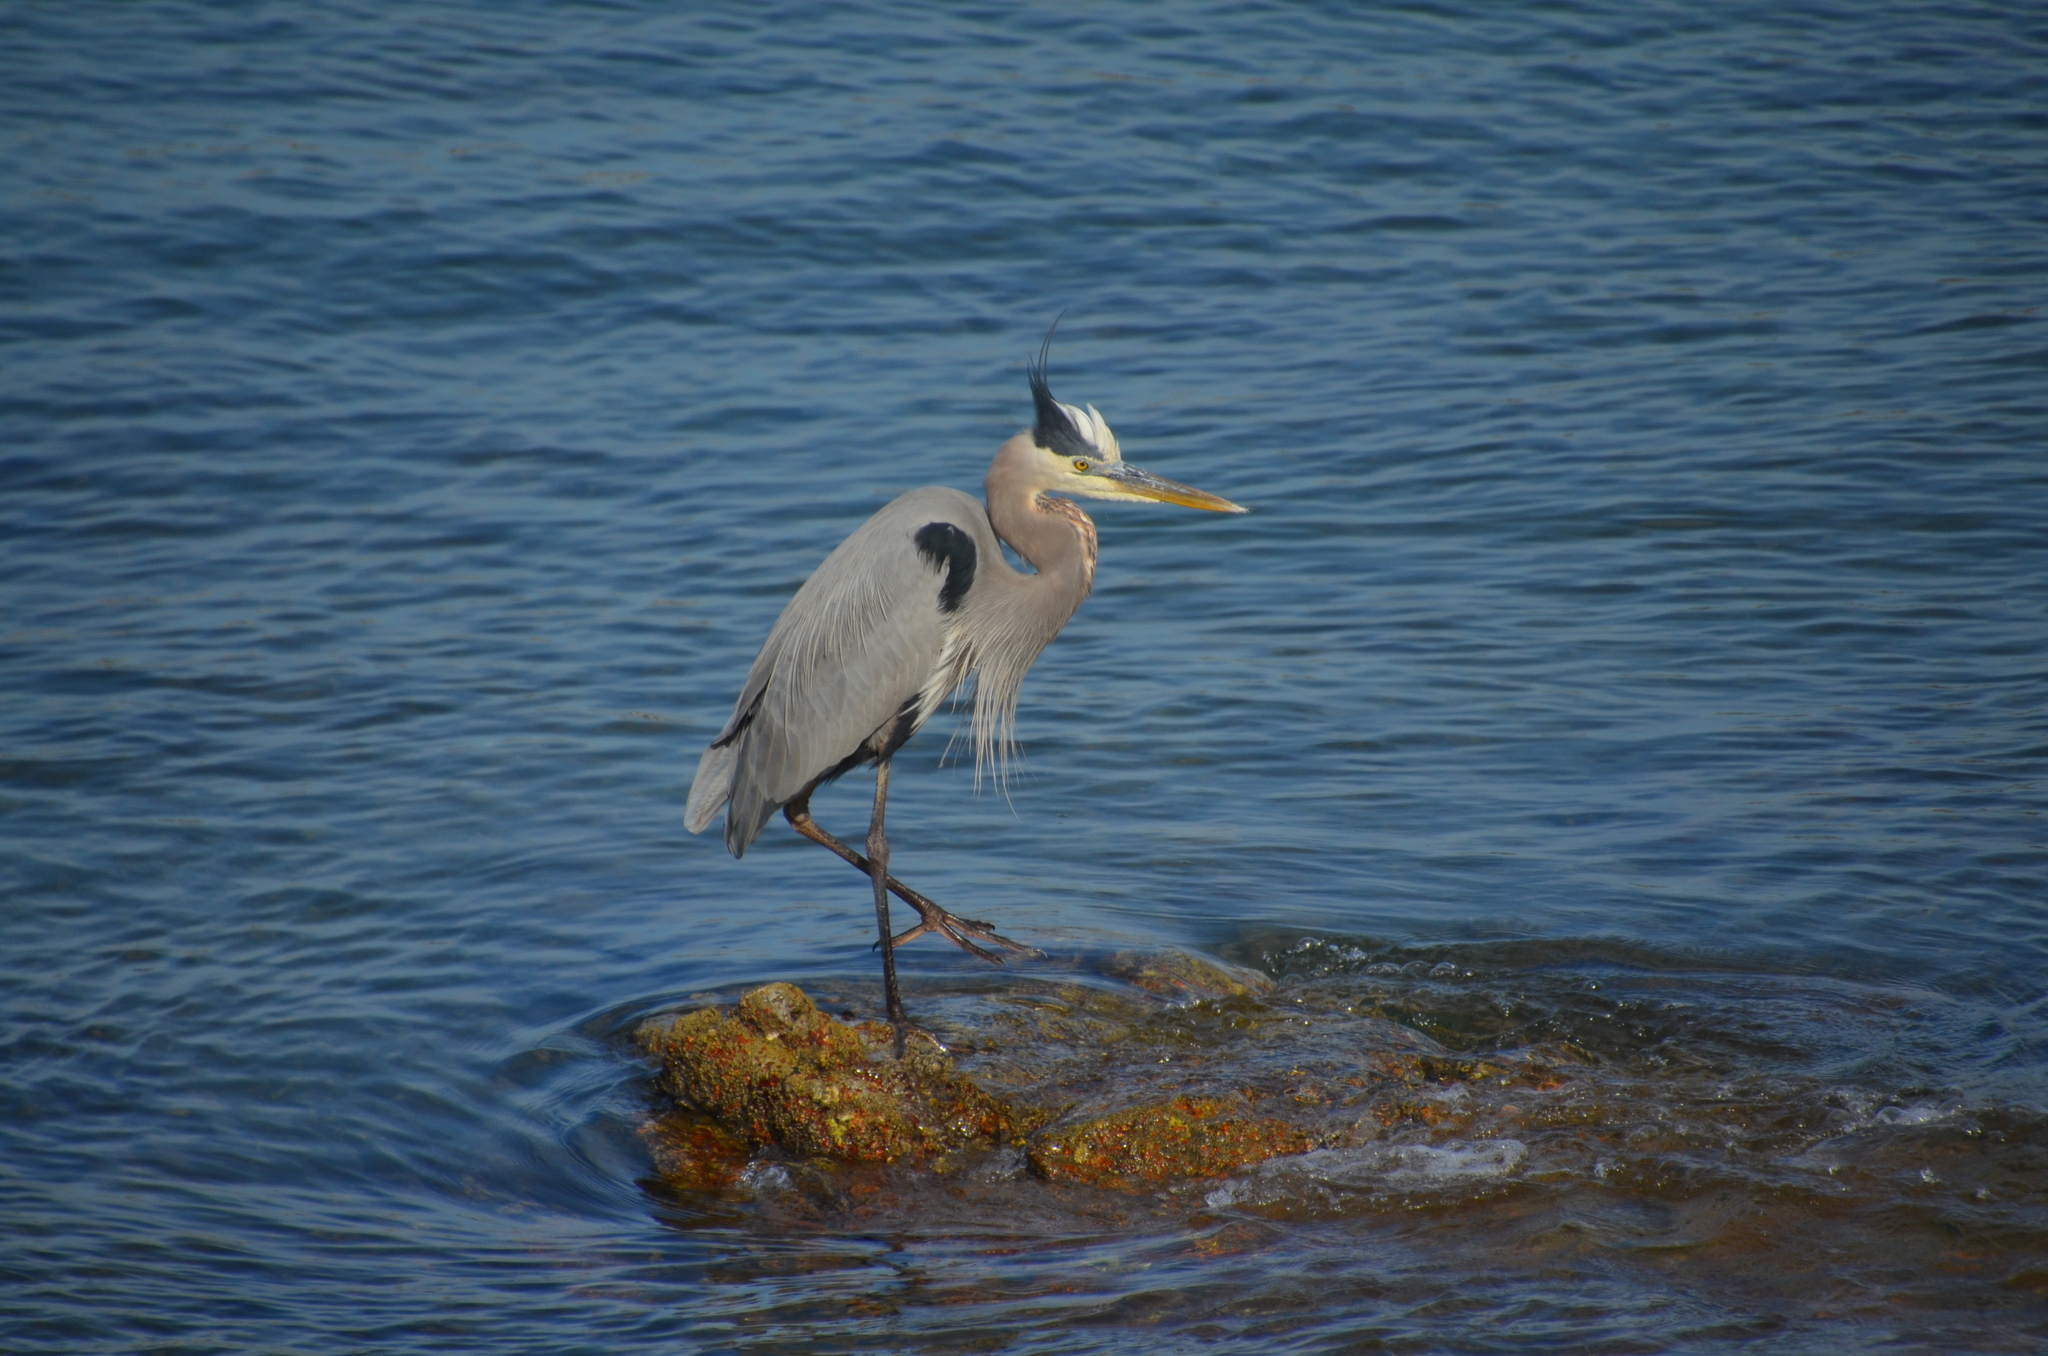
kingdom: Animalia
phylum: Chordata
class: Aves
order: Pelecaniformes
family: Ardeidae
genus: Ardea
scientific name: Ardea herodias
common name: Great blue heron
